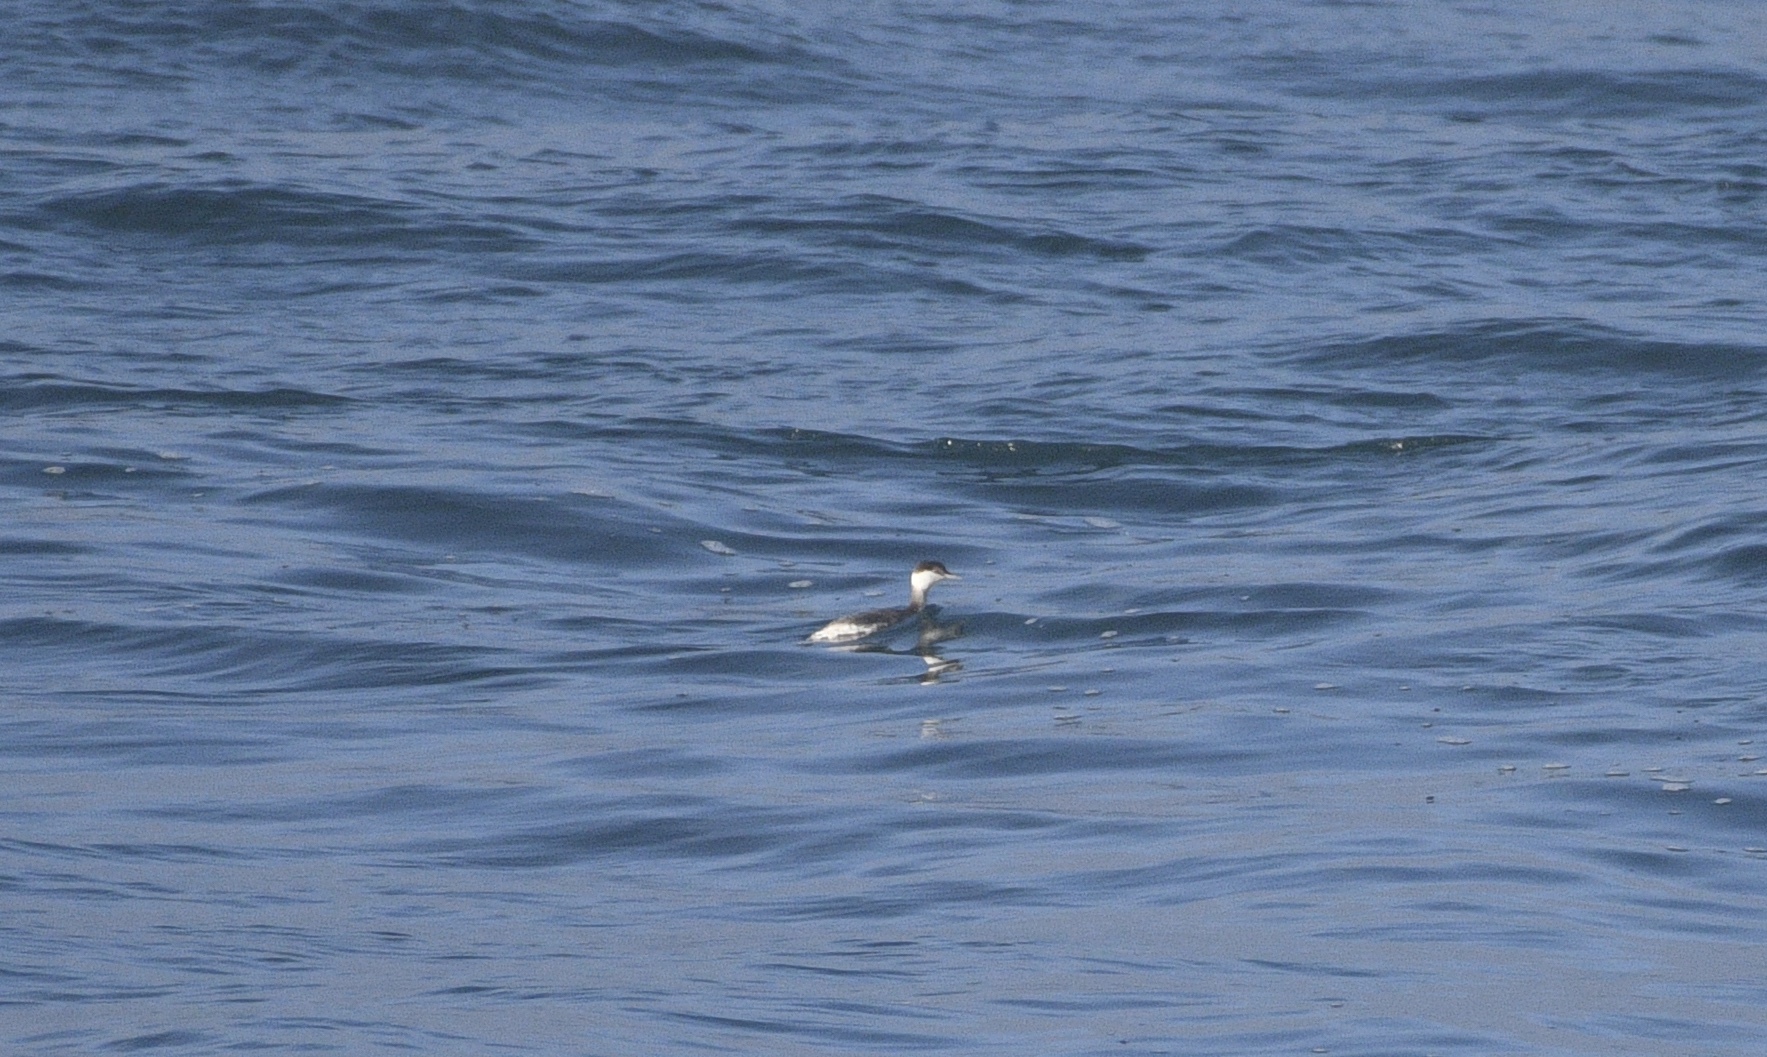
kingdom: Animalia
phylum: Chordata
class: Aves
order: Podicipediformes
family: Podicipedidae
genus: Podiceps
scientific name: Podiceps auritus
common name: Horned grebe
